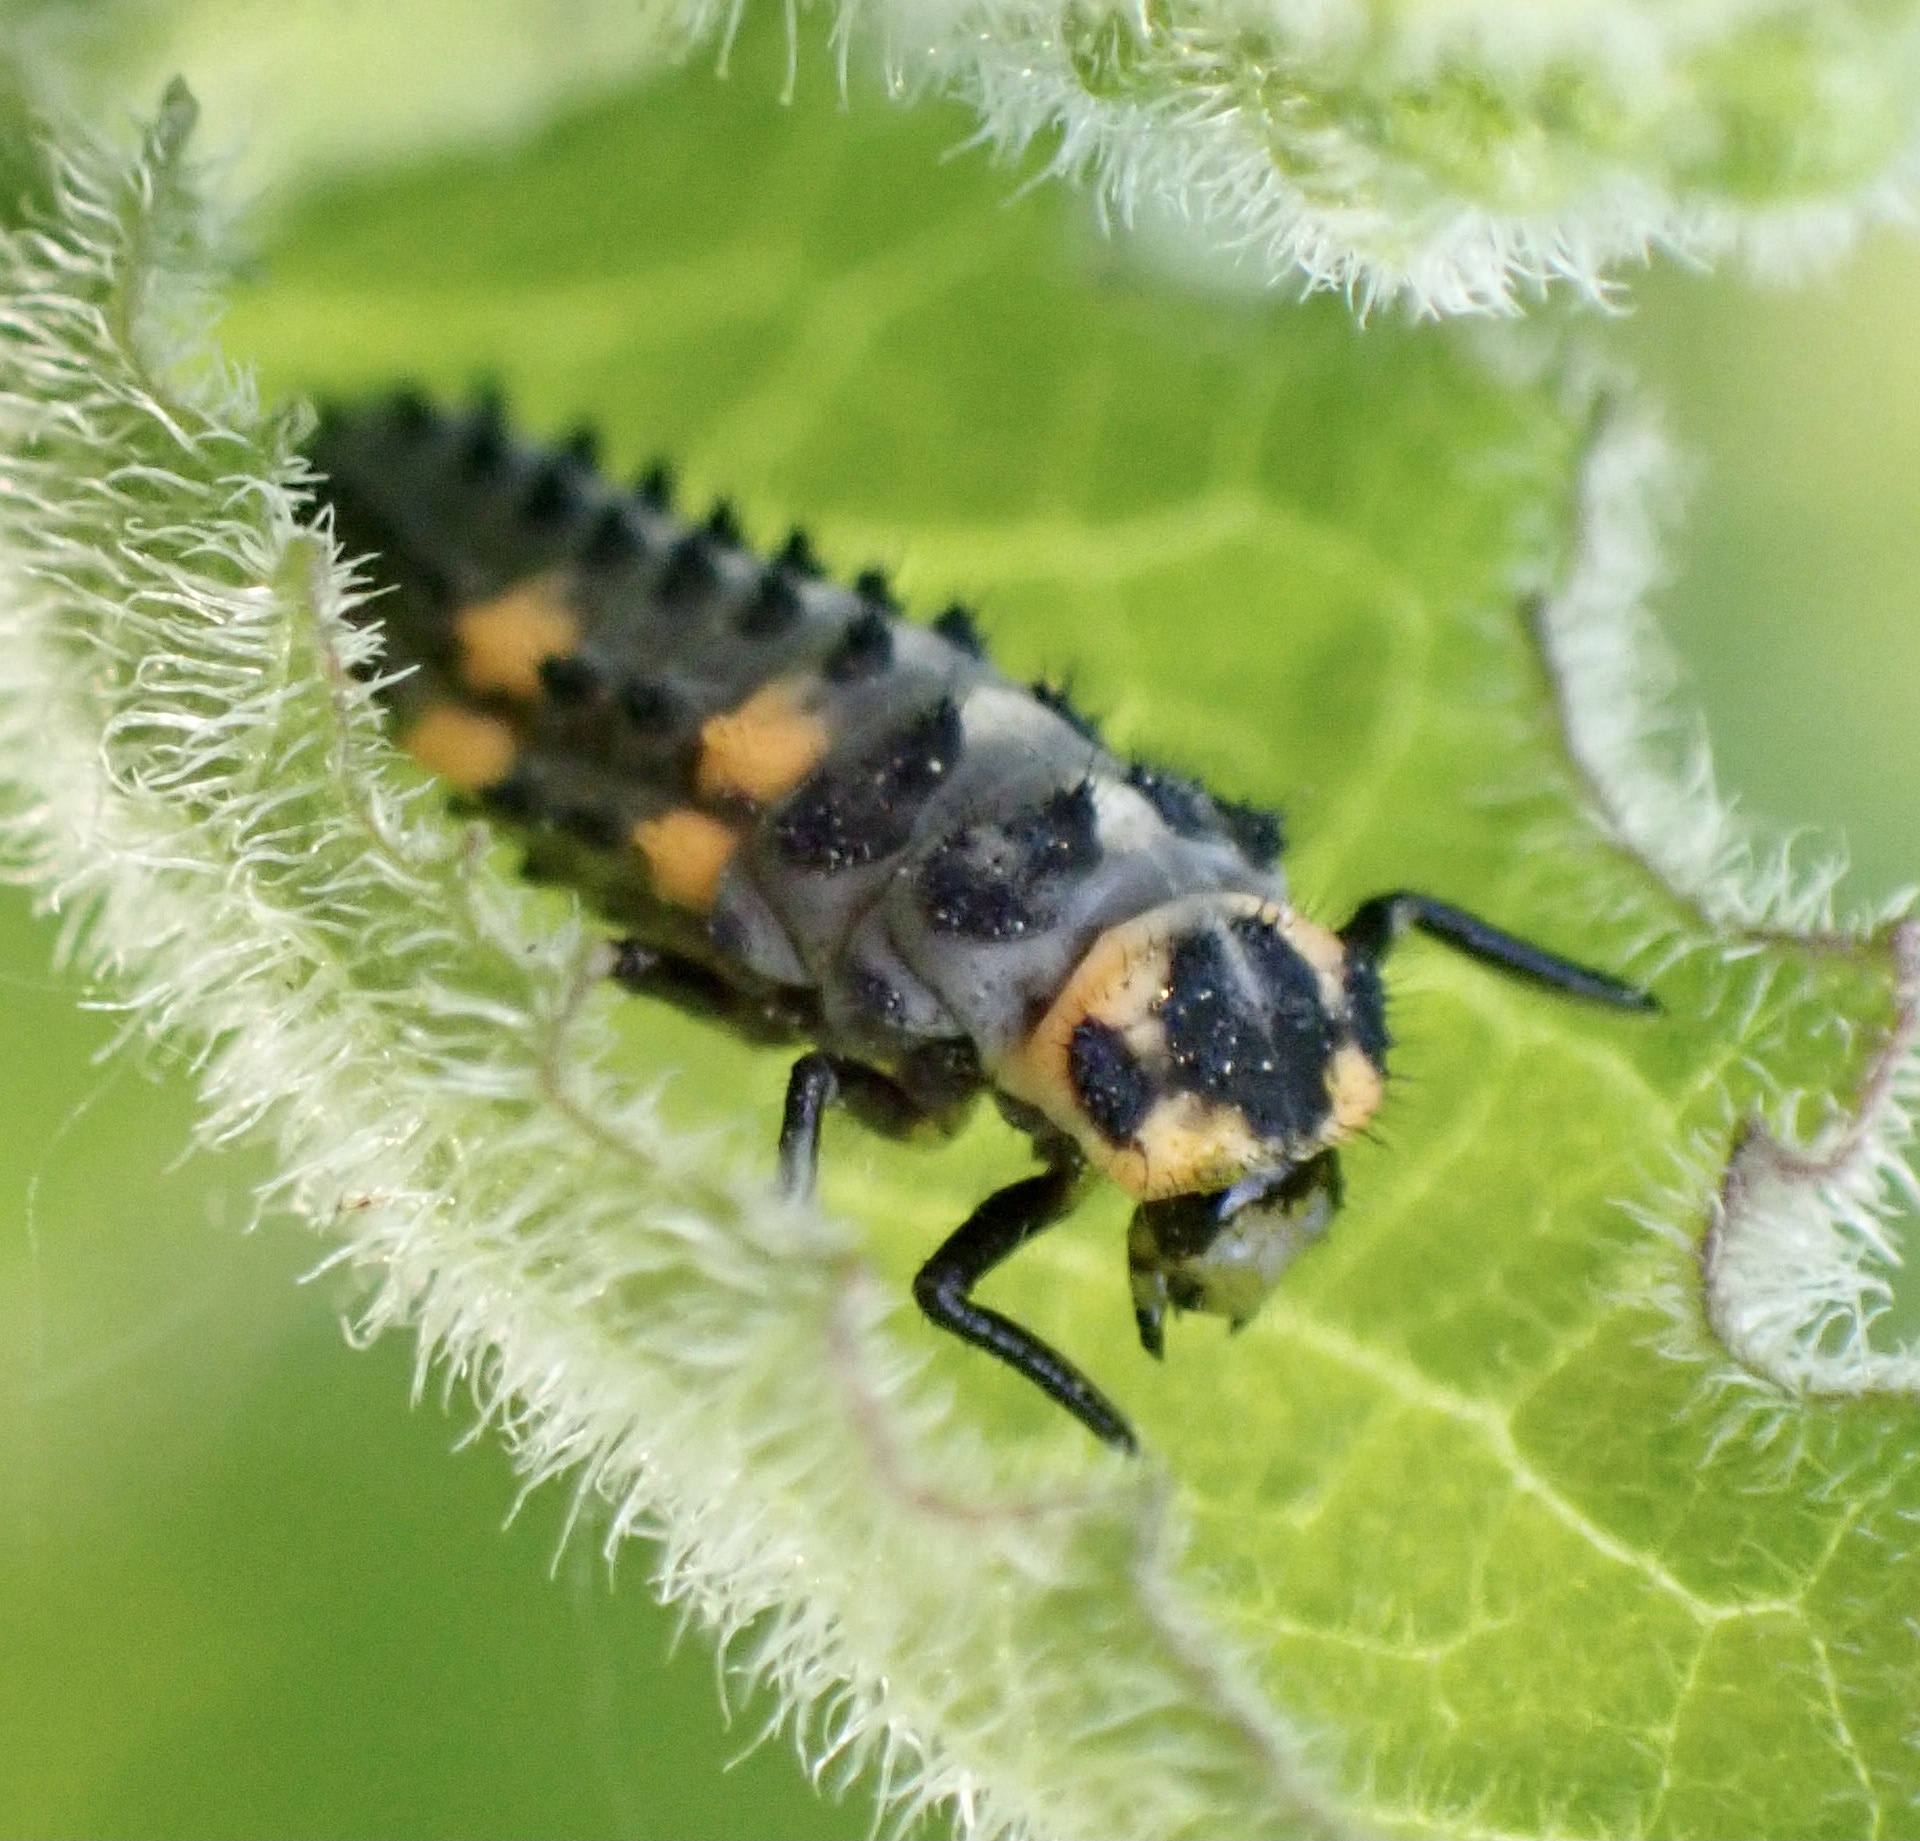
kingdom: Animalia
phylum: Arthropoda
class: Insecta
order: Coleoptera
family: Coccinellidae
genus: Coccinella
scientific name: Coccinella septempunctata
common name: Sevenspotted lady beetle
